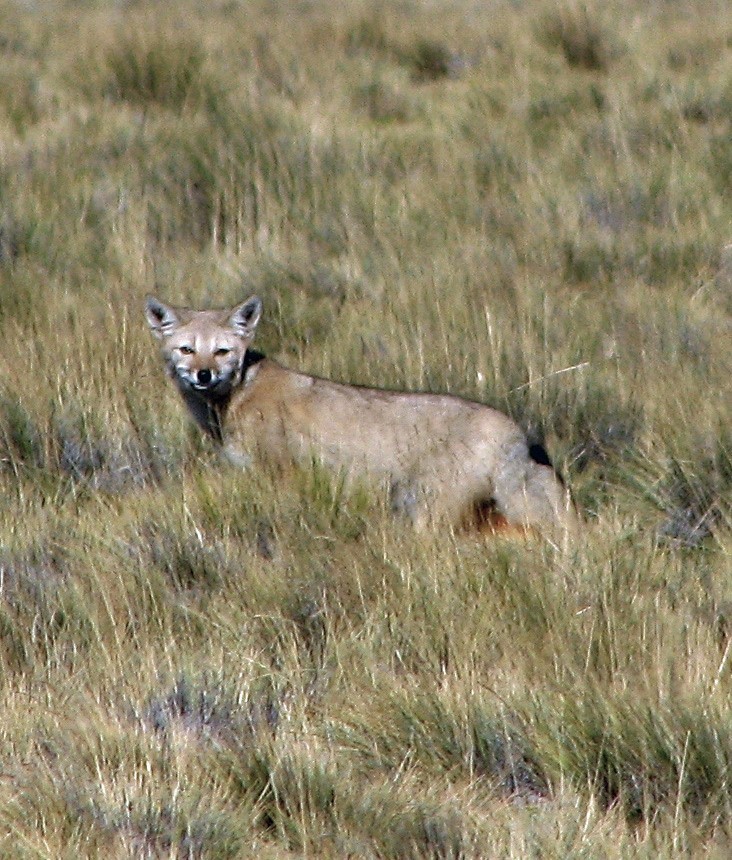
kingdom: Animalia
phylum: Chordata
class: Mammalia
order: Carnivora
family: Canidae
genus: Lycalopex
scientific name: Lycalopex gymnocercus
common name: Pampas fox
